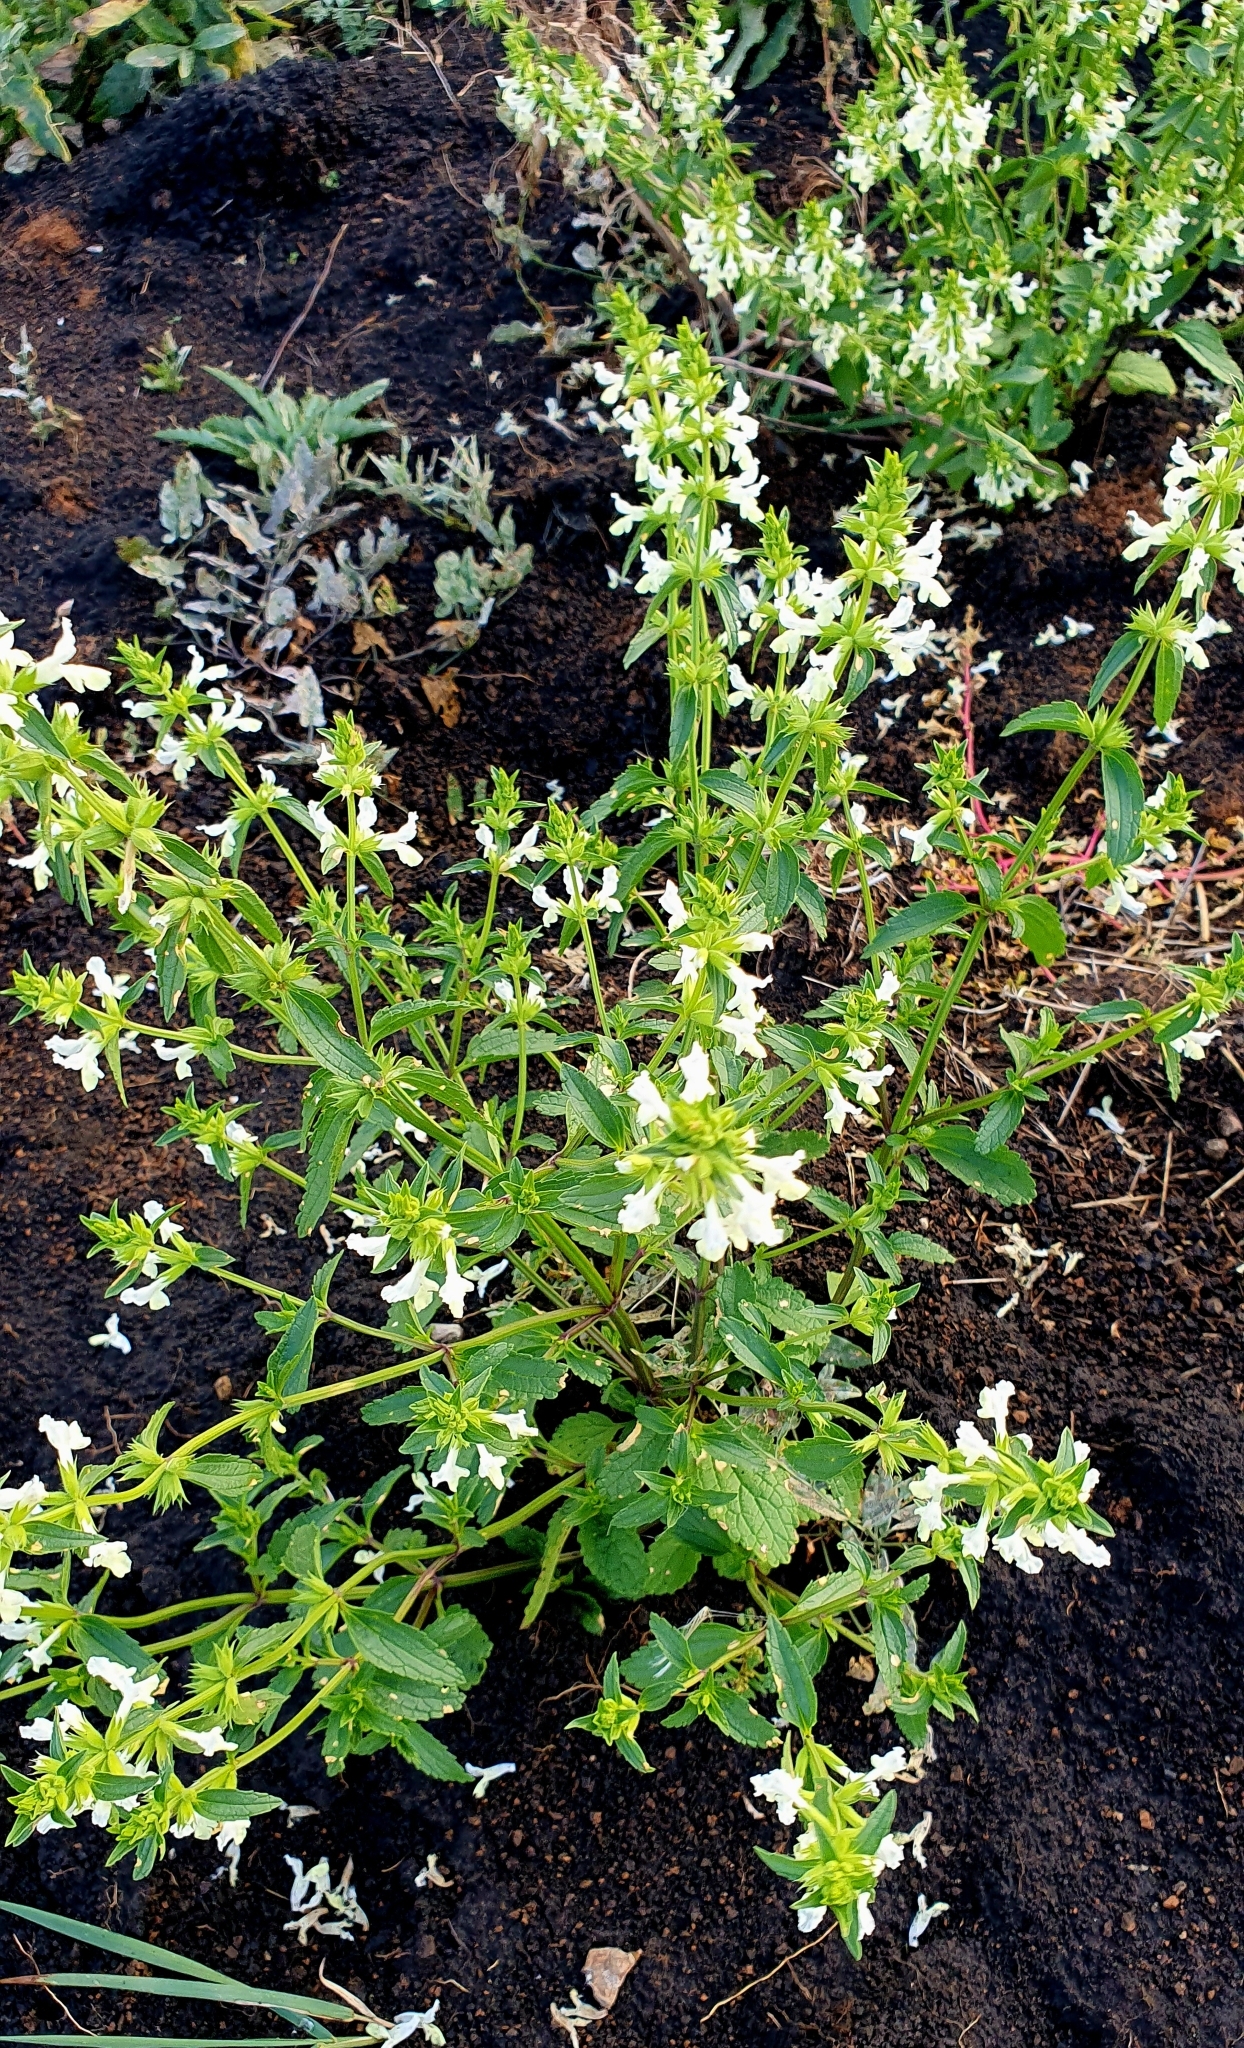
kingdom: Plantae
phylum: Tracheophyta
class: Magnoliopsida
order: Lamiales
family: Lamiaceae
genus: Stachys
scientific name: Stachys annua
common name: Annual yellow-woundwort
